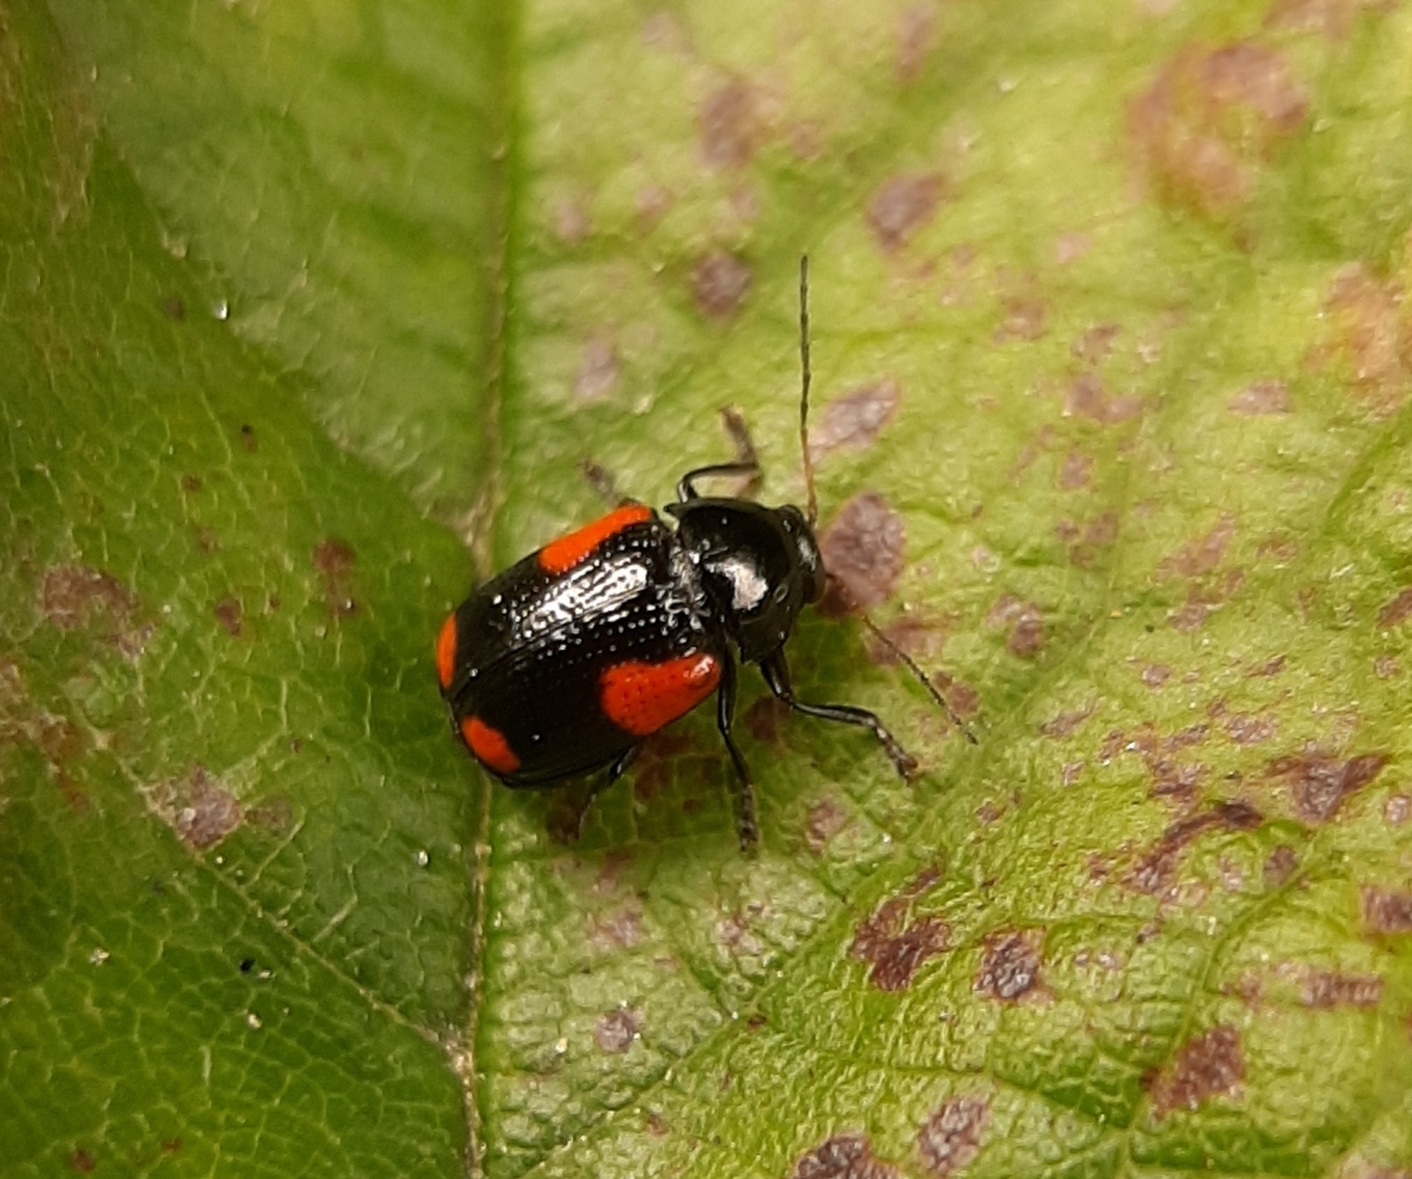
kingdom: Animalia
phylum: Arthropoda
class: Insecta
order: Coleoptera
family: Chrysomelidae
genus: Cryptocephalus
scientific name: Cryptocephalus quadruplex
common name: Black and red sumac leaf beetle
